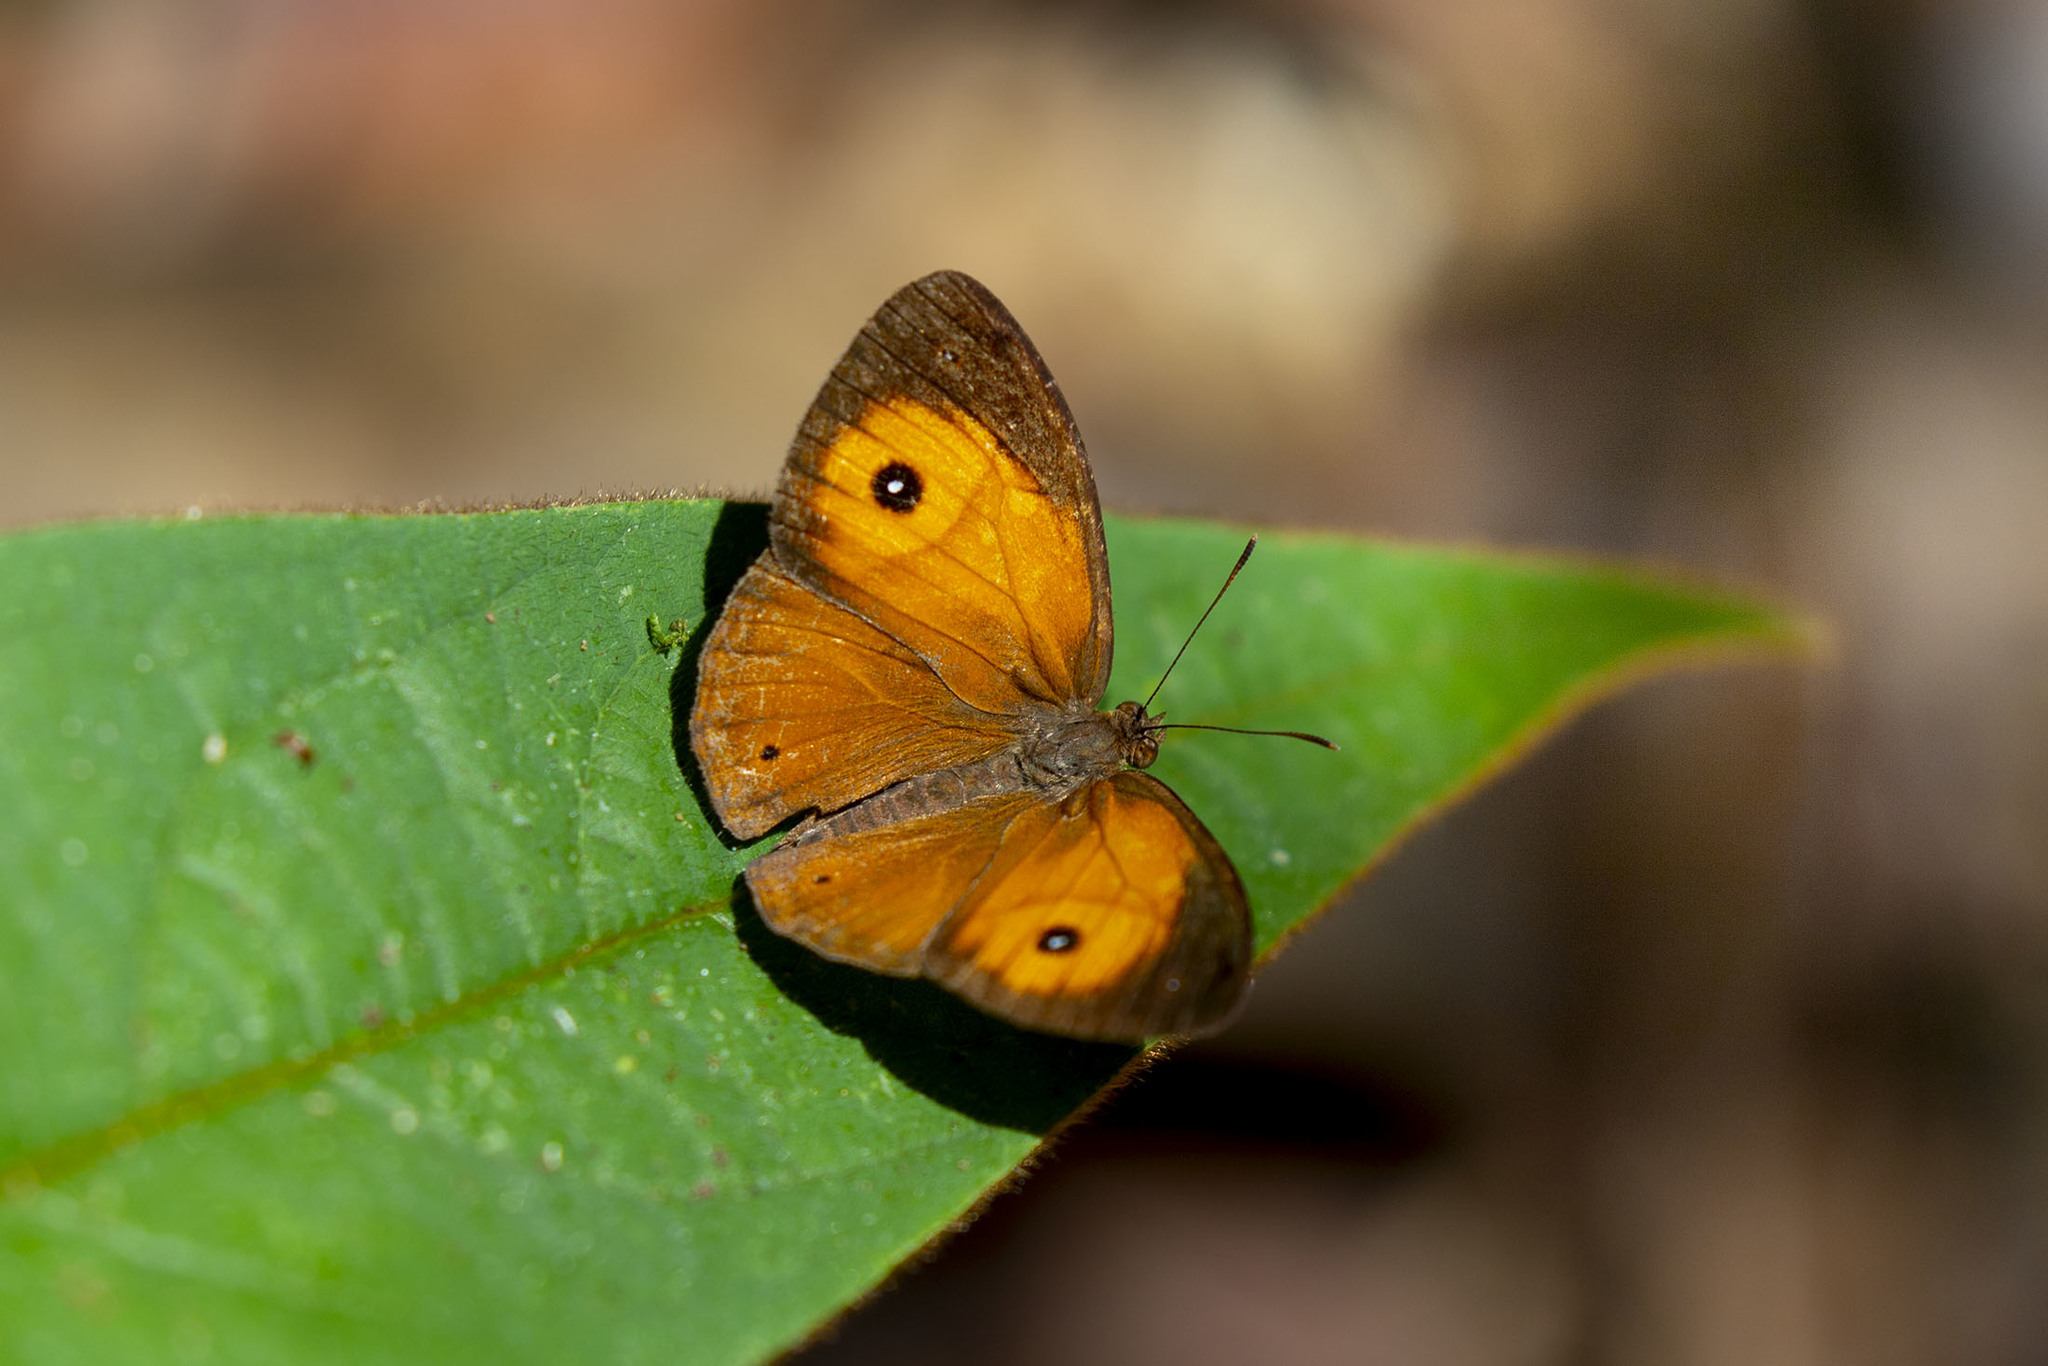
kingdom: Animalia
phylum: Arthropoda
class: Insecta
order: Lepidoptera
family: Nymphalidae
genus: Heteropsis
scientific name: Heteropsis maeva
